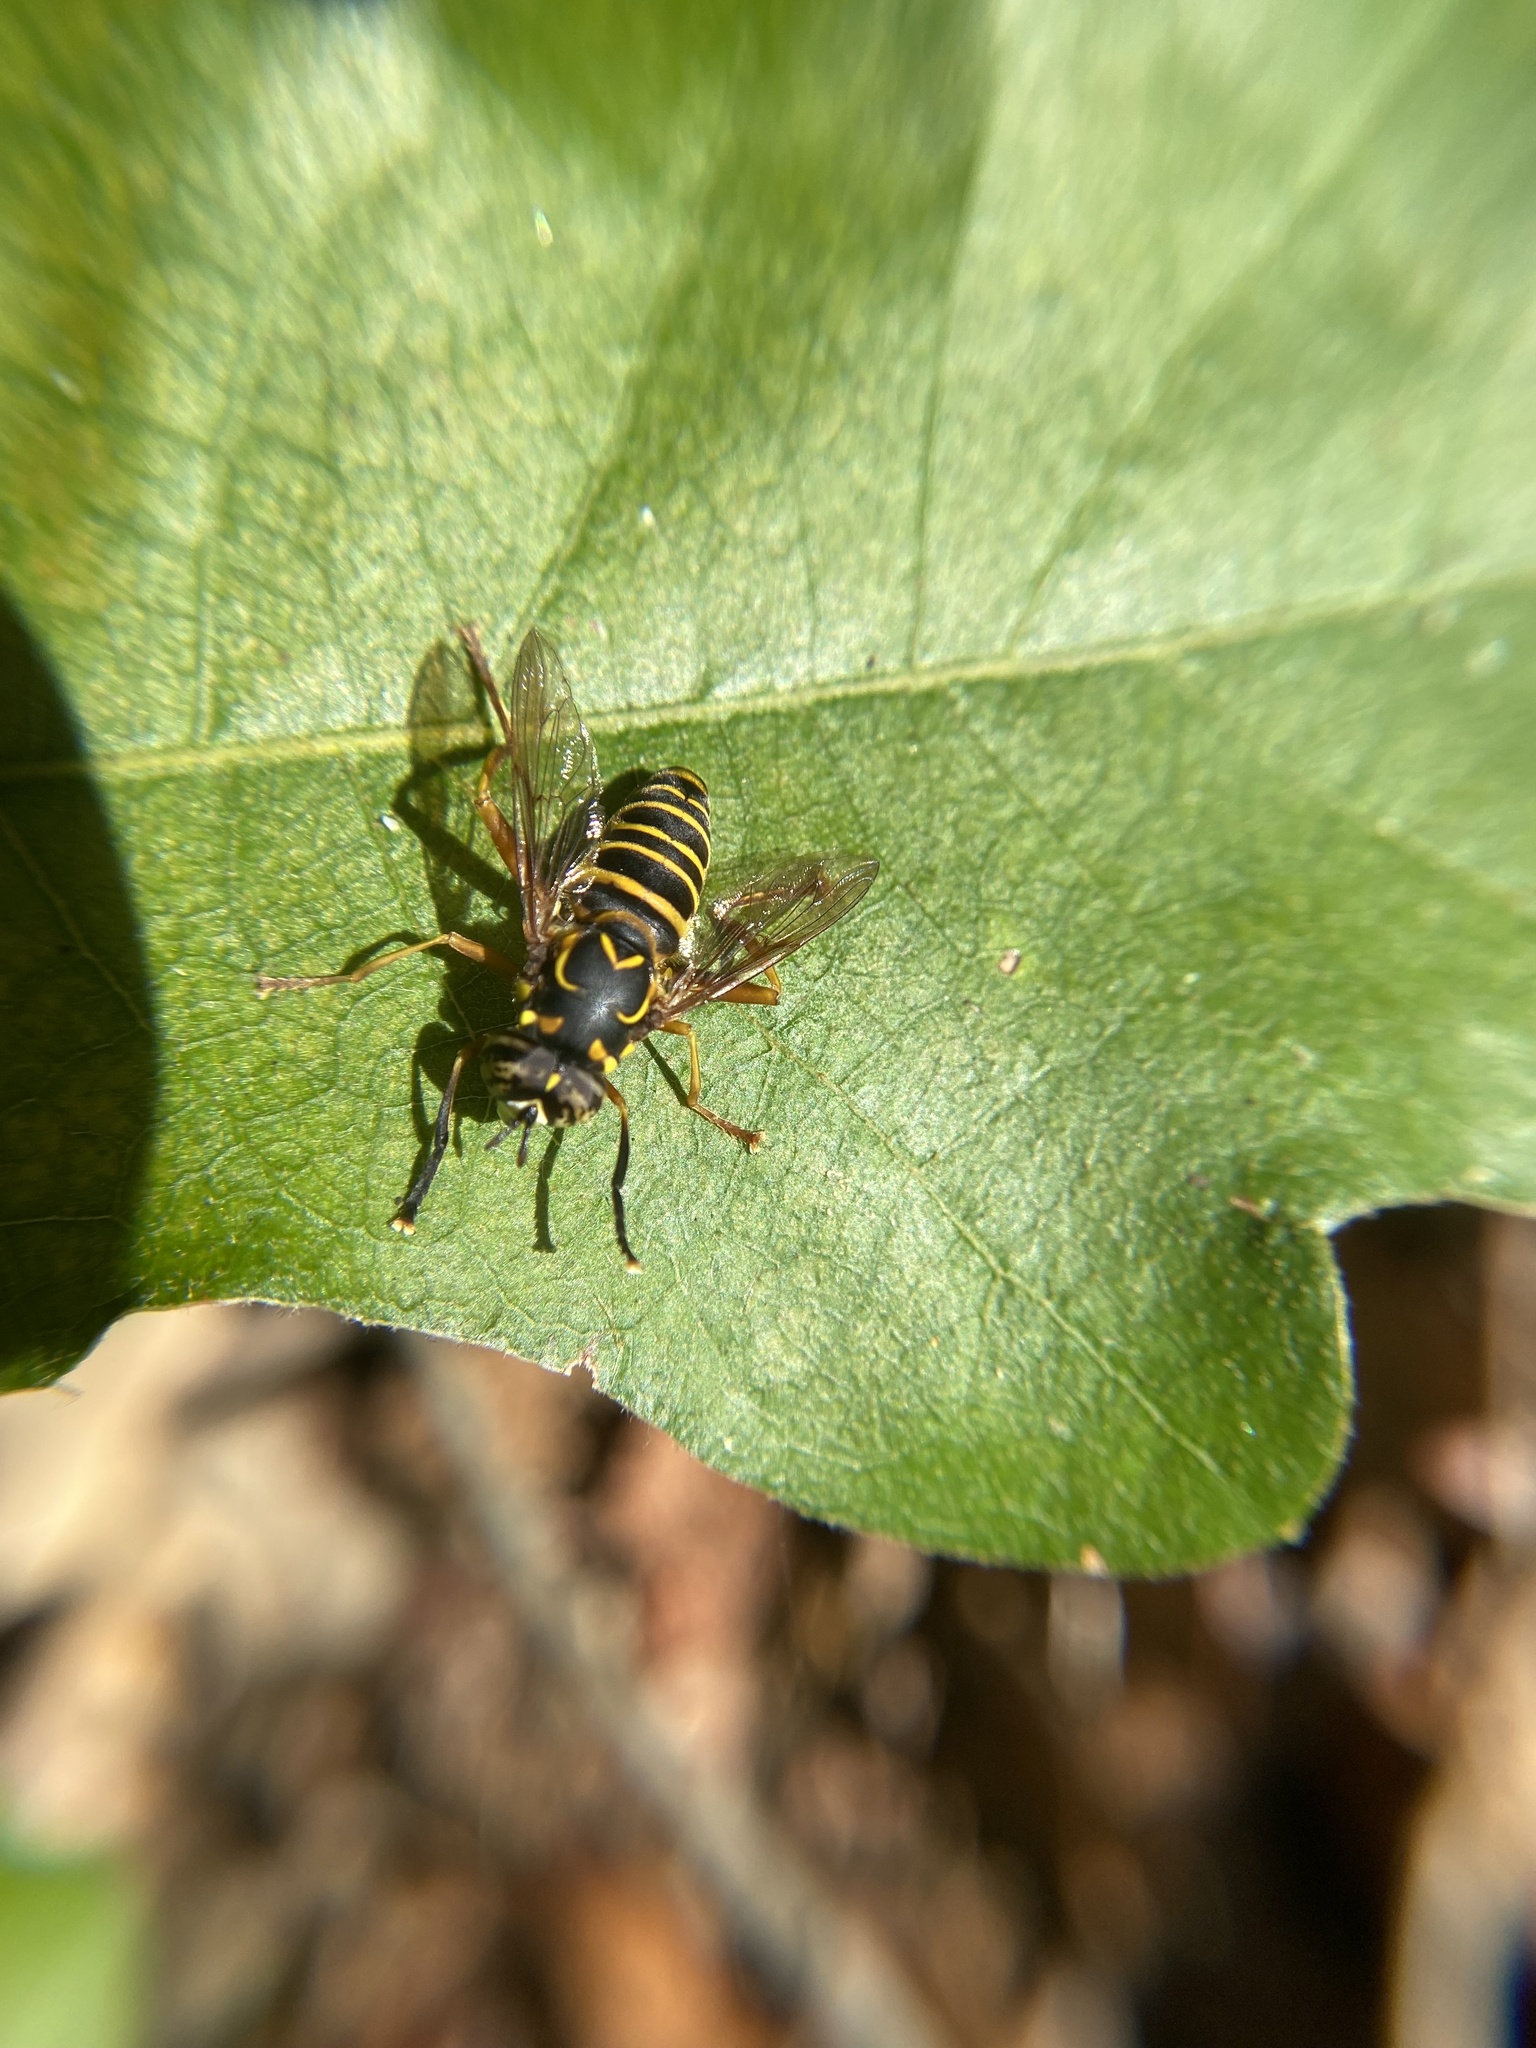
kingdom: Animalia
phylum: Arthropoda
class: Insecta
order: Diptera
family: Syrphidae
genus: Spilomyia
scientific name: Spilomyia longicornis
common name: Eastern hornet fly
